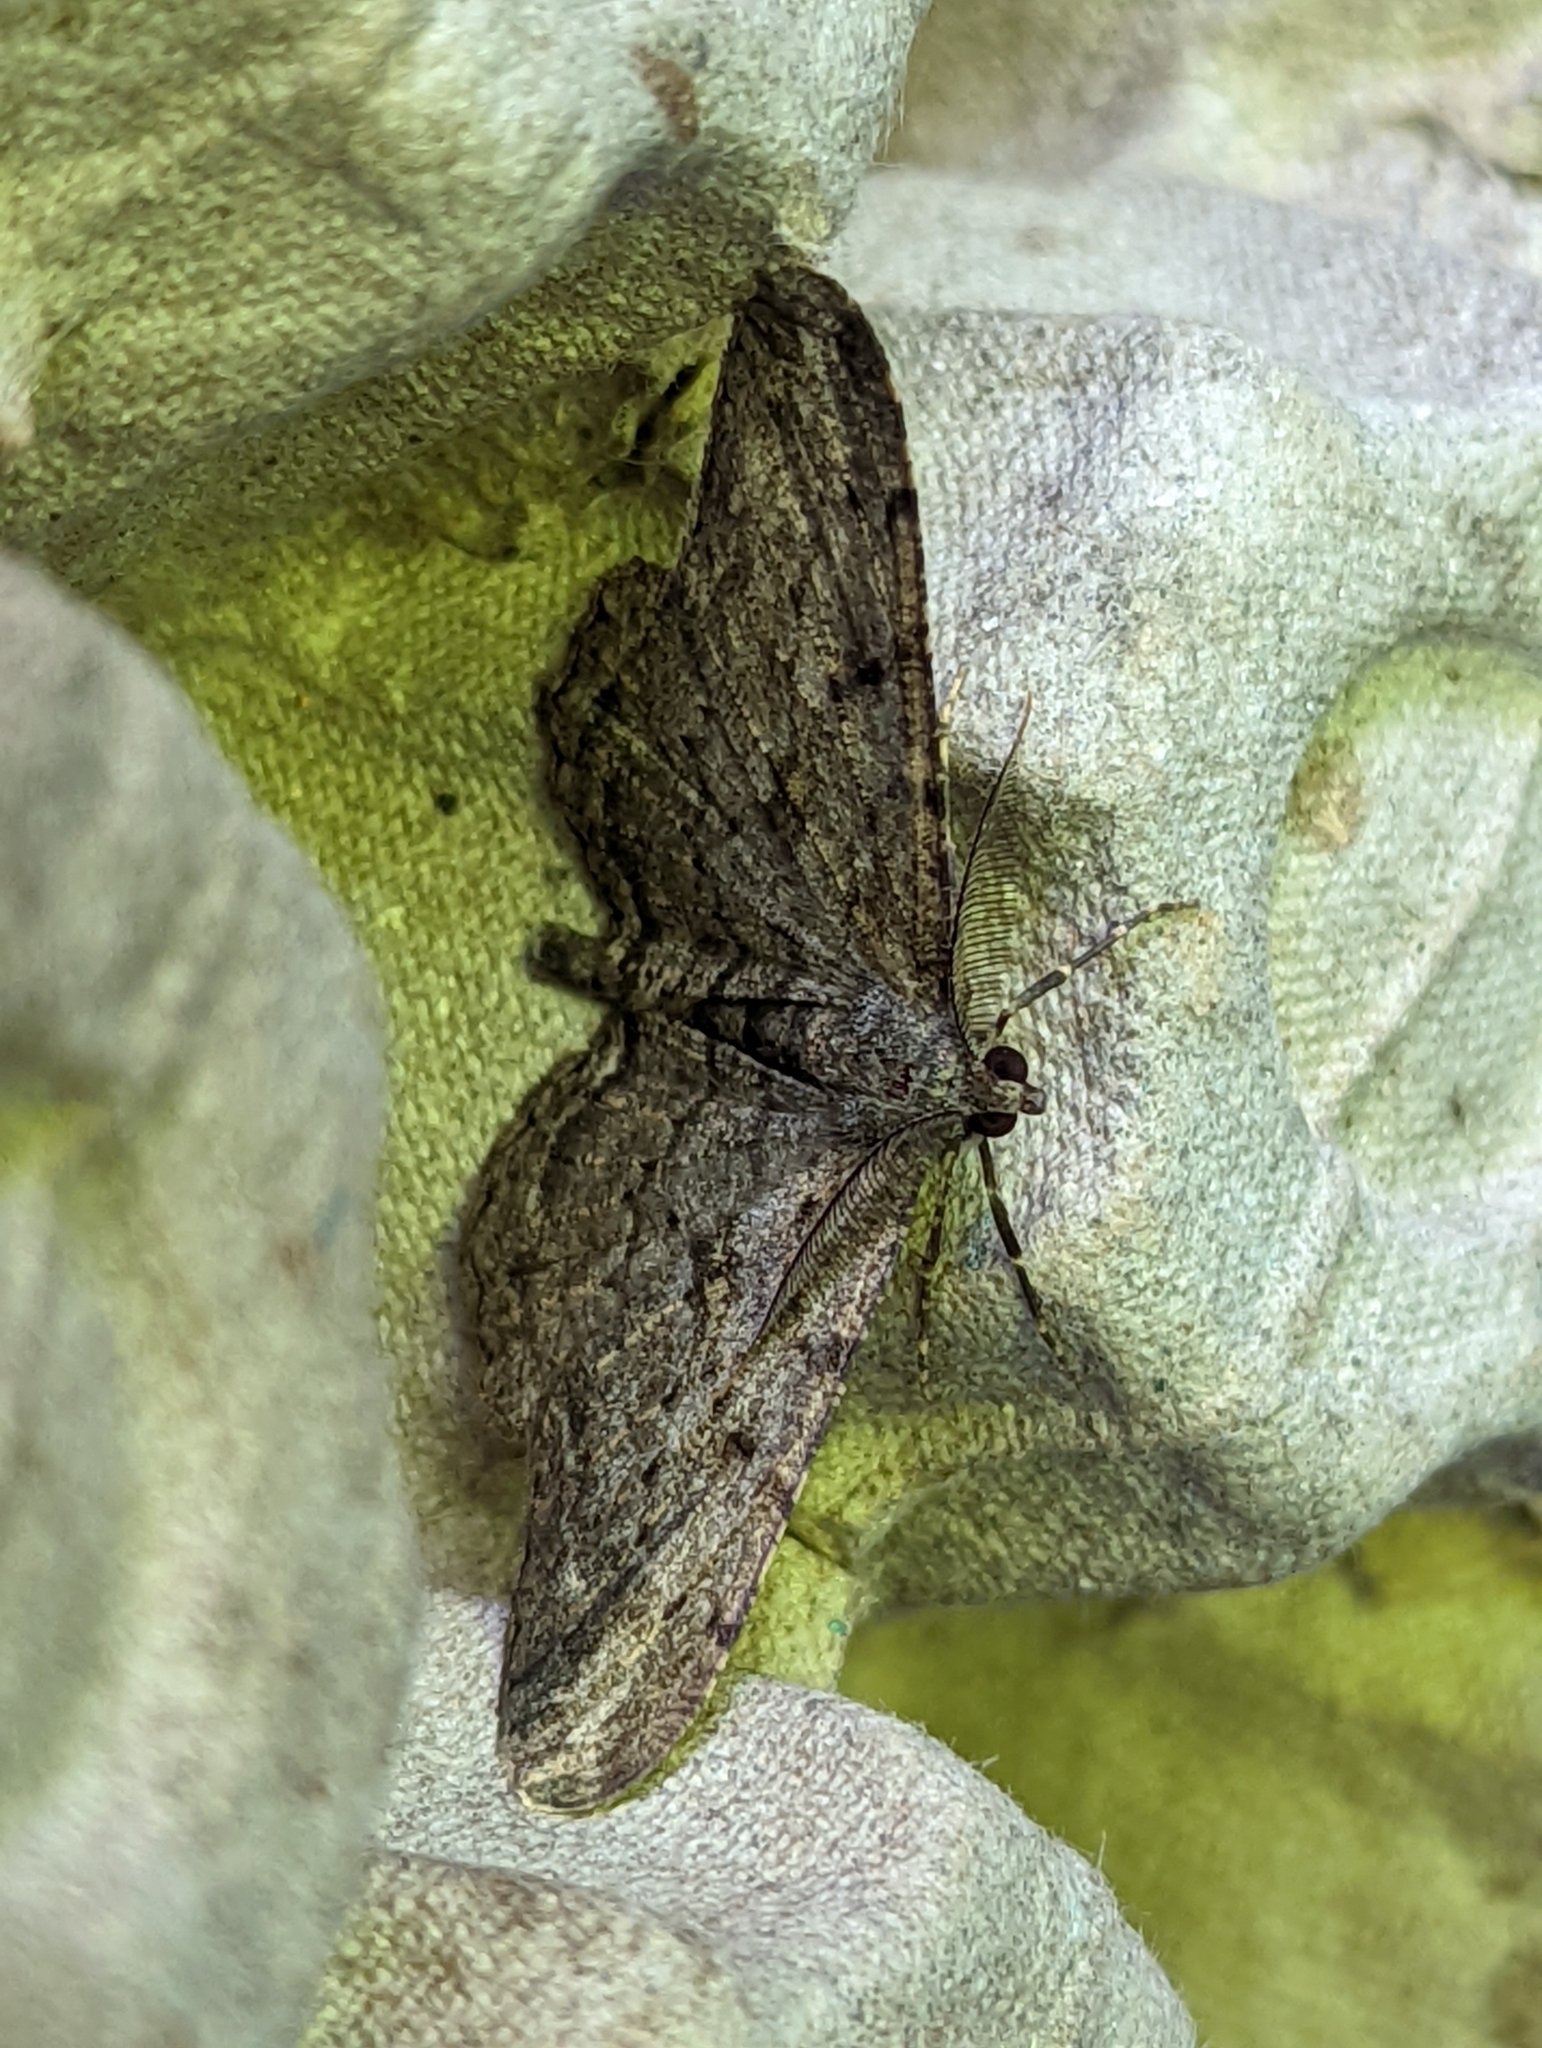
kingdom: Animalia
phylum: Arthropoda
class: Insecta
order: Lepidoptera
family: Geometridae
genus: Peribatodes
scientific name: Peribatodes rhomboidaria
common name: Willow beauty
